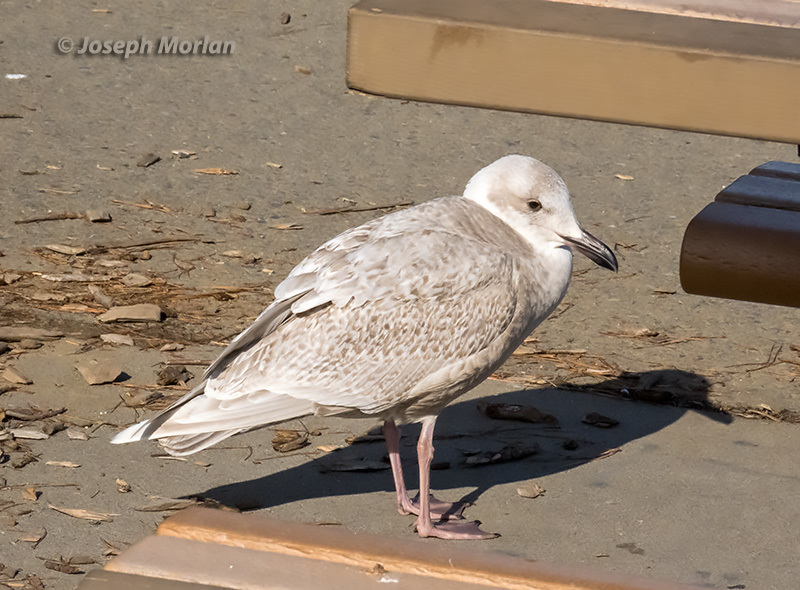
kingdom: Animalia
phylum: Chordata
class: Aves
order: Charadriiformes
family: Laridae
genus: Larus
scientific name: Larus glaucescens
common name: Glaucous-winged gull
